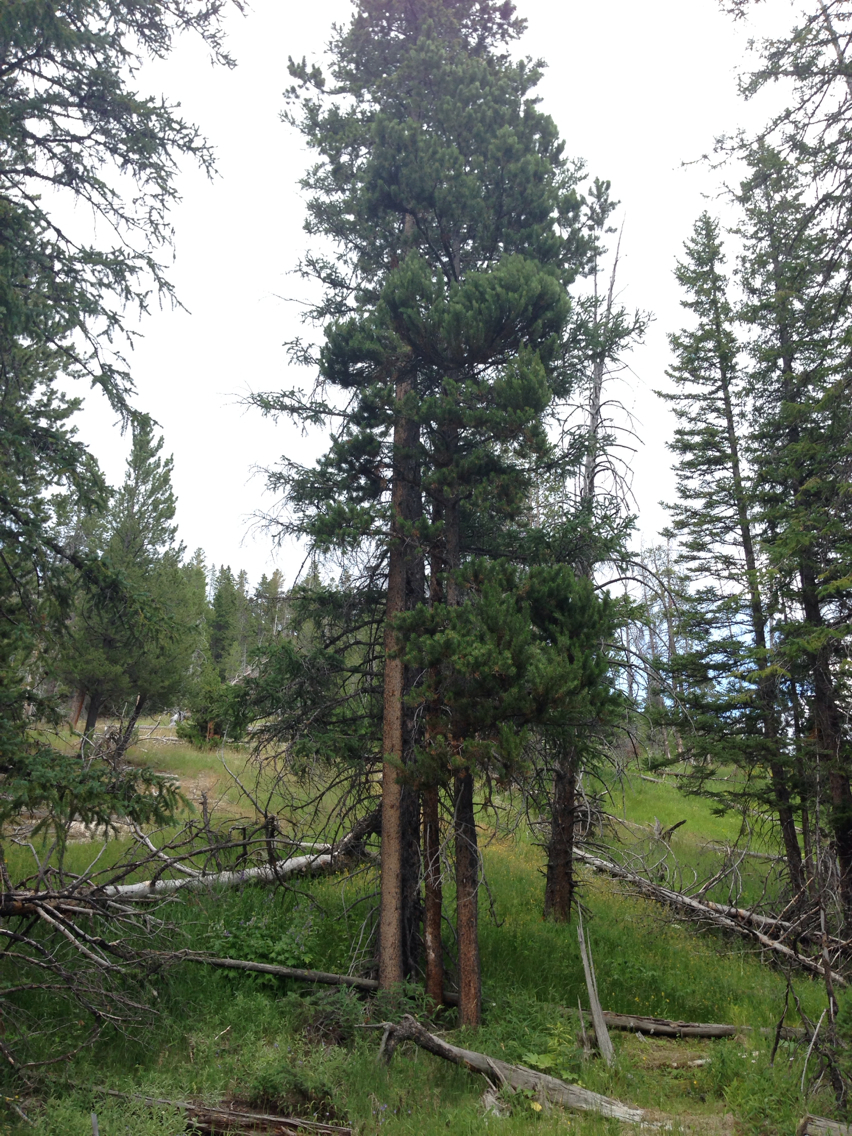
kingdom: Plantae
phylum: Tracheophyta
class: Pinopsida
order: Pinales
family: Pinaceae
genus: Pinus
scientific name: Pinus contorta
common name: Lodgepole pine
